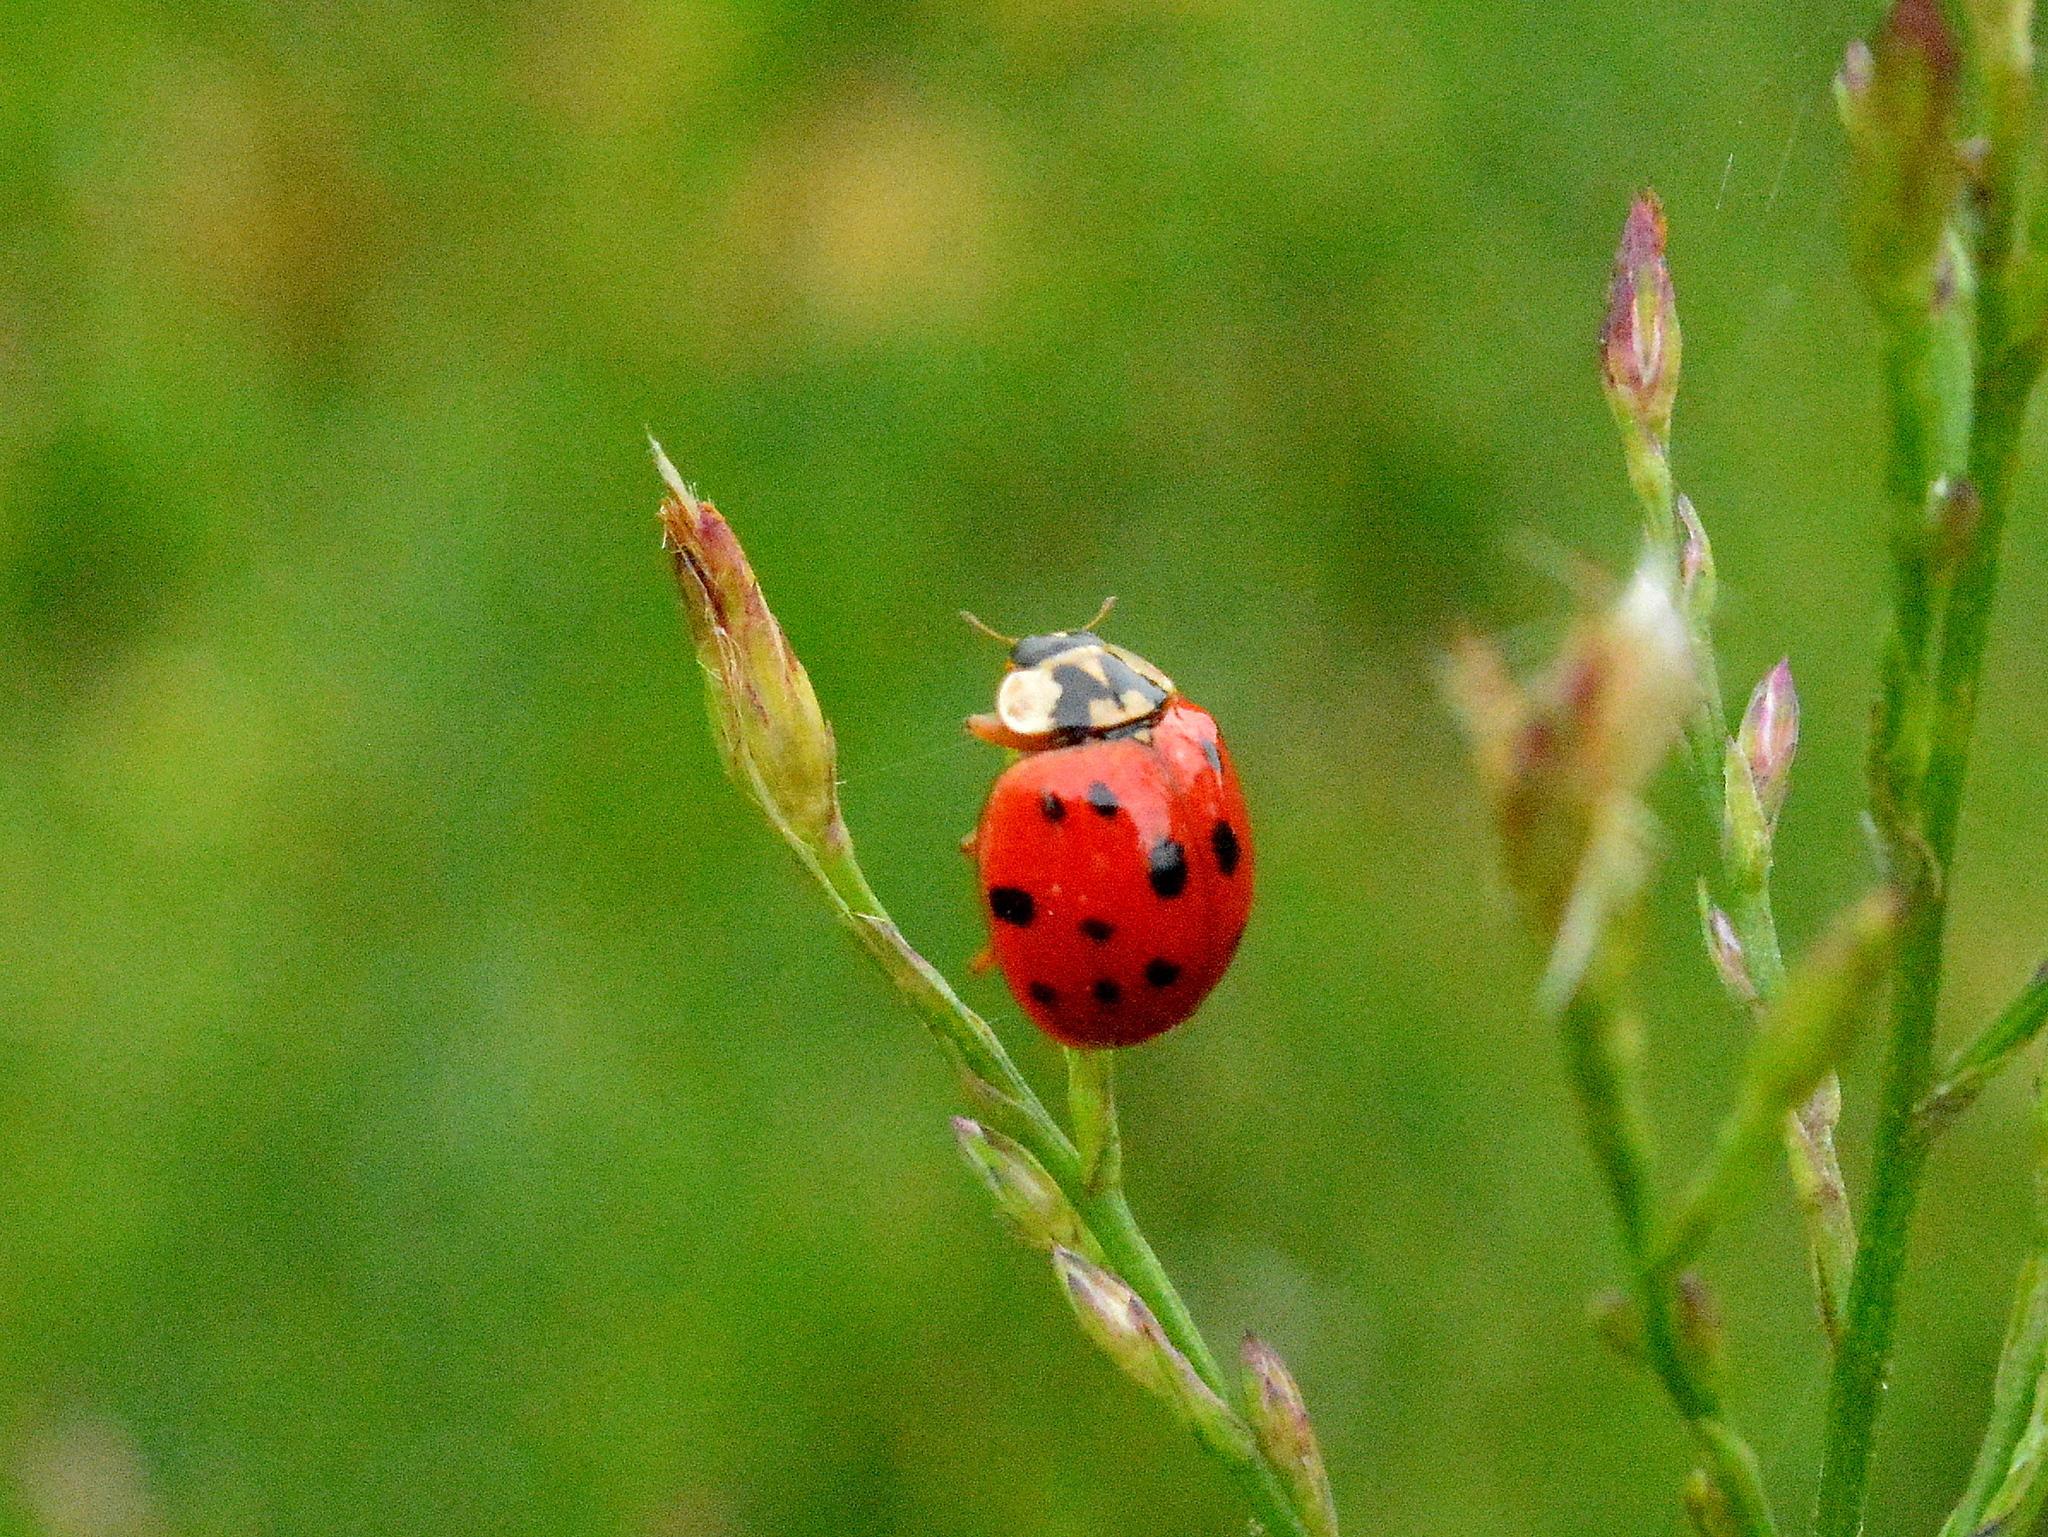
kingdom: Animalia
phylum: Arthropoda
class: Insecta
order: Coleoptera
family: Coccinellidae
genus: Harmonia
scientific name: Harmonia axyridis
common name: Harlequin ladybird
